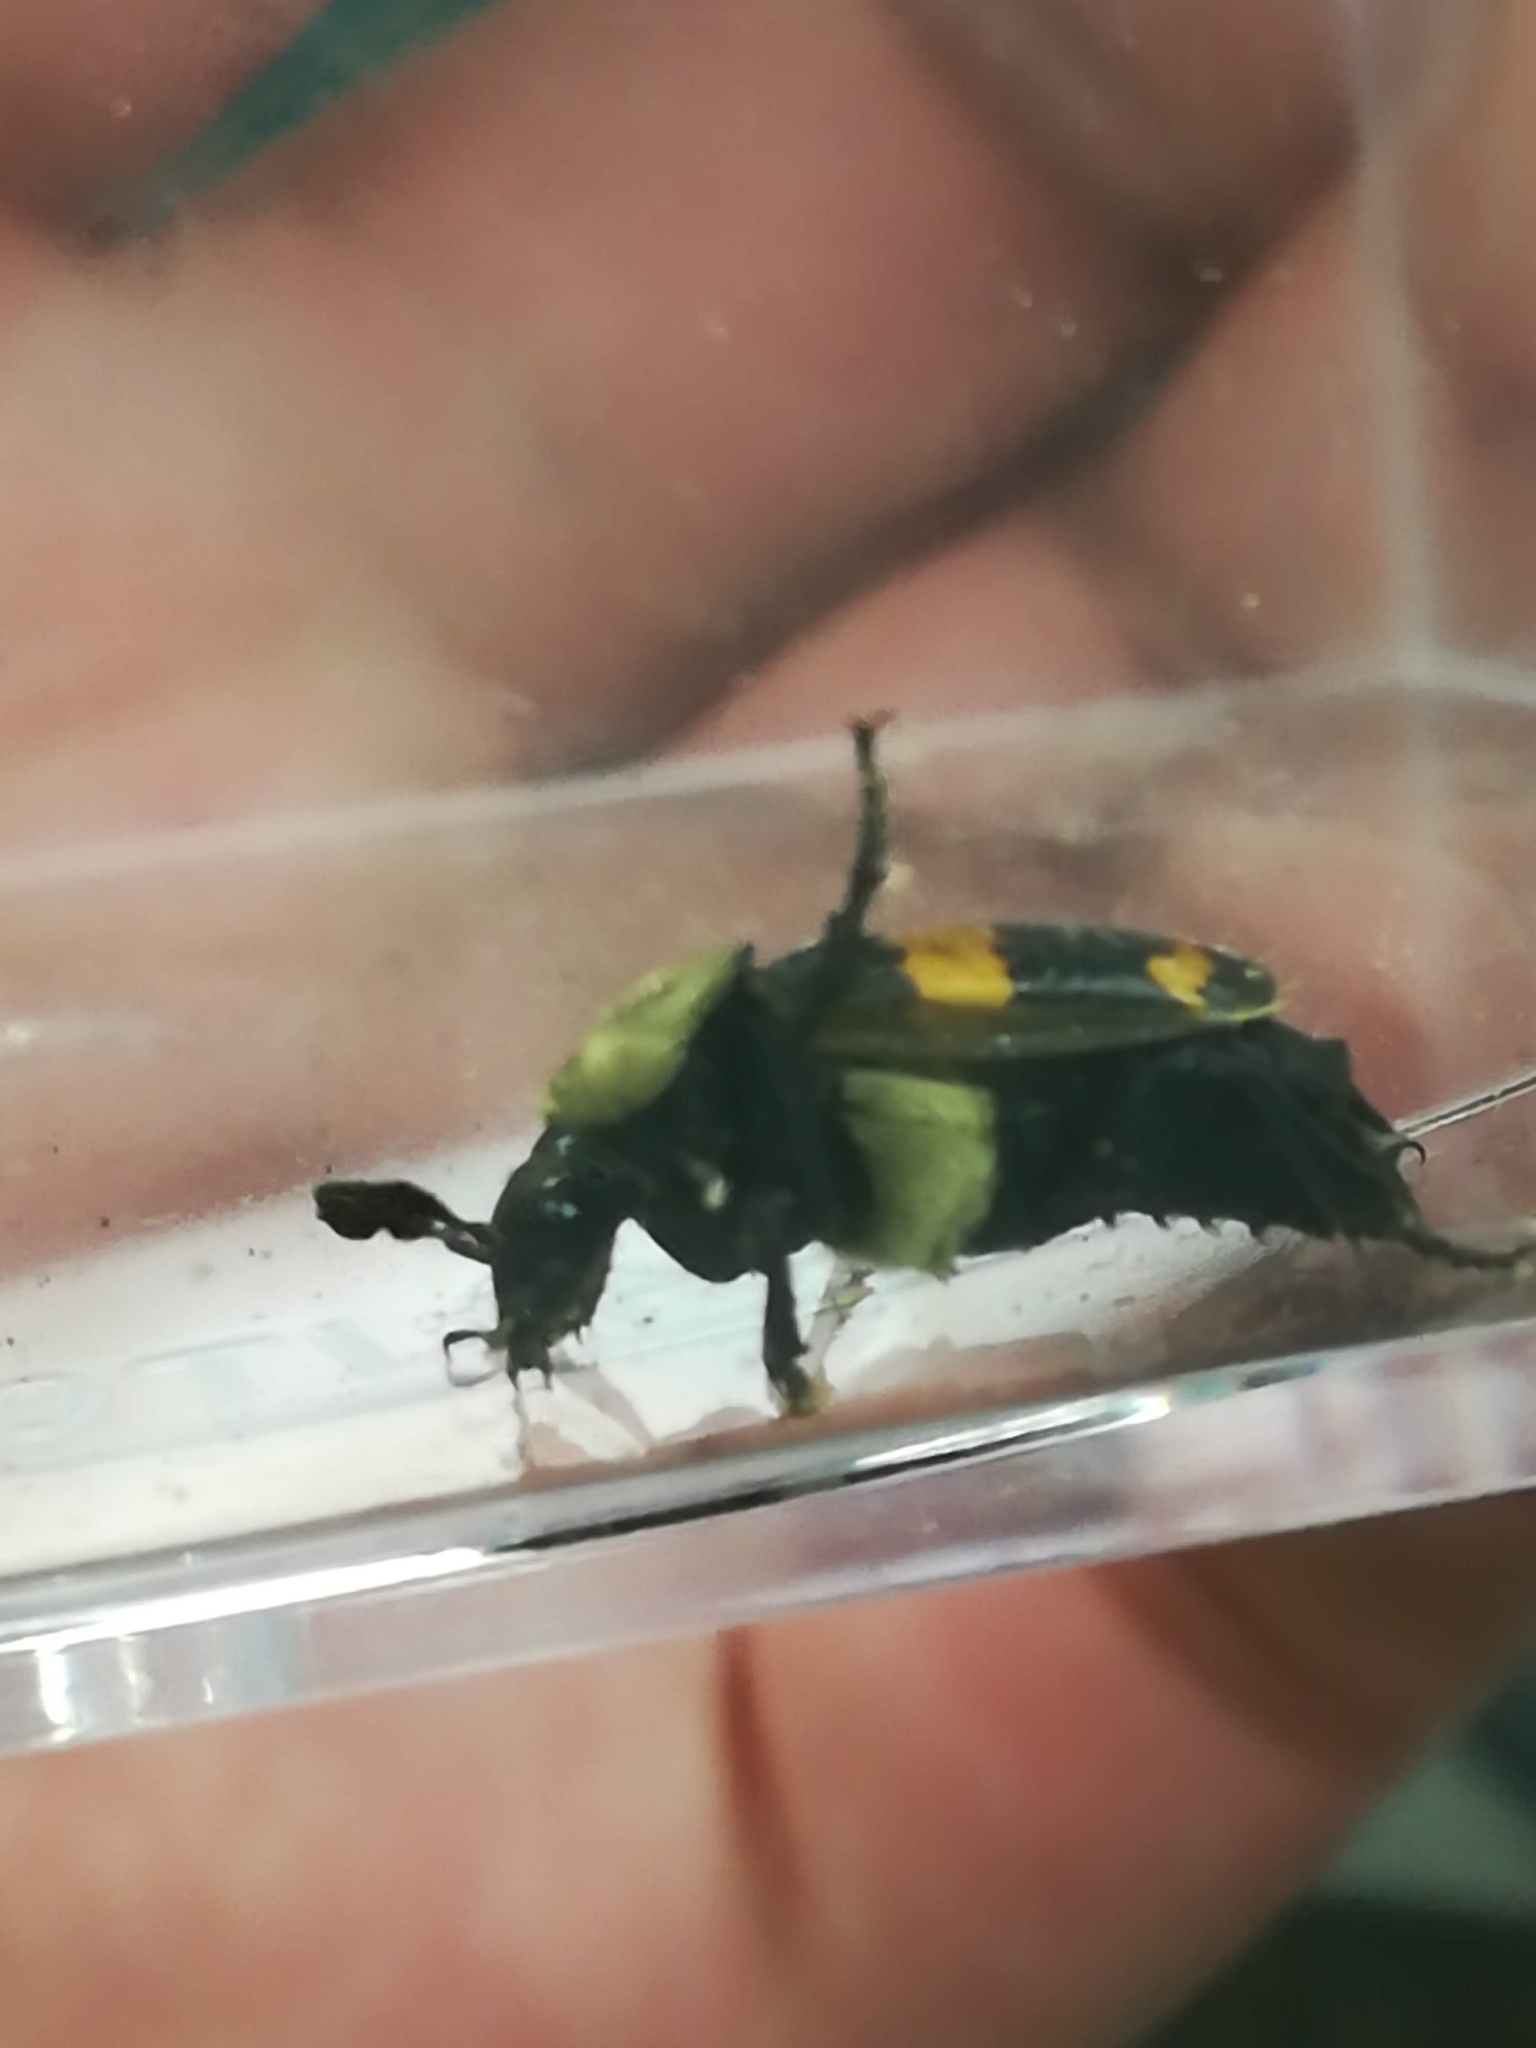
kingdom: Animalia
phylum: Arthropoda
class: Insecta
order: Coleoptera
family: Staphylinidae
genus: Nicrophorus
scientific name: Nicrophorus tomentosus
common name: Tomentose burying beetle
